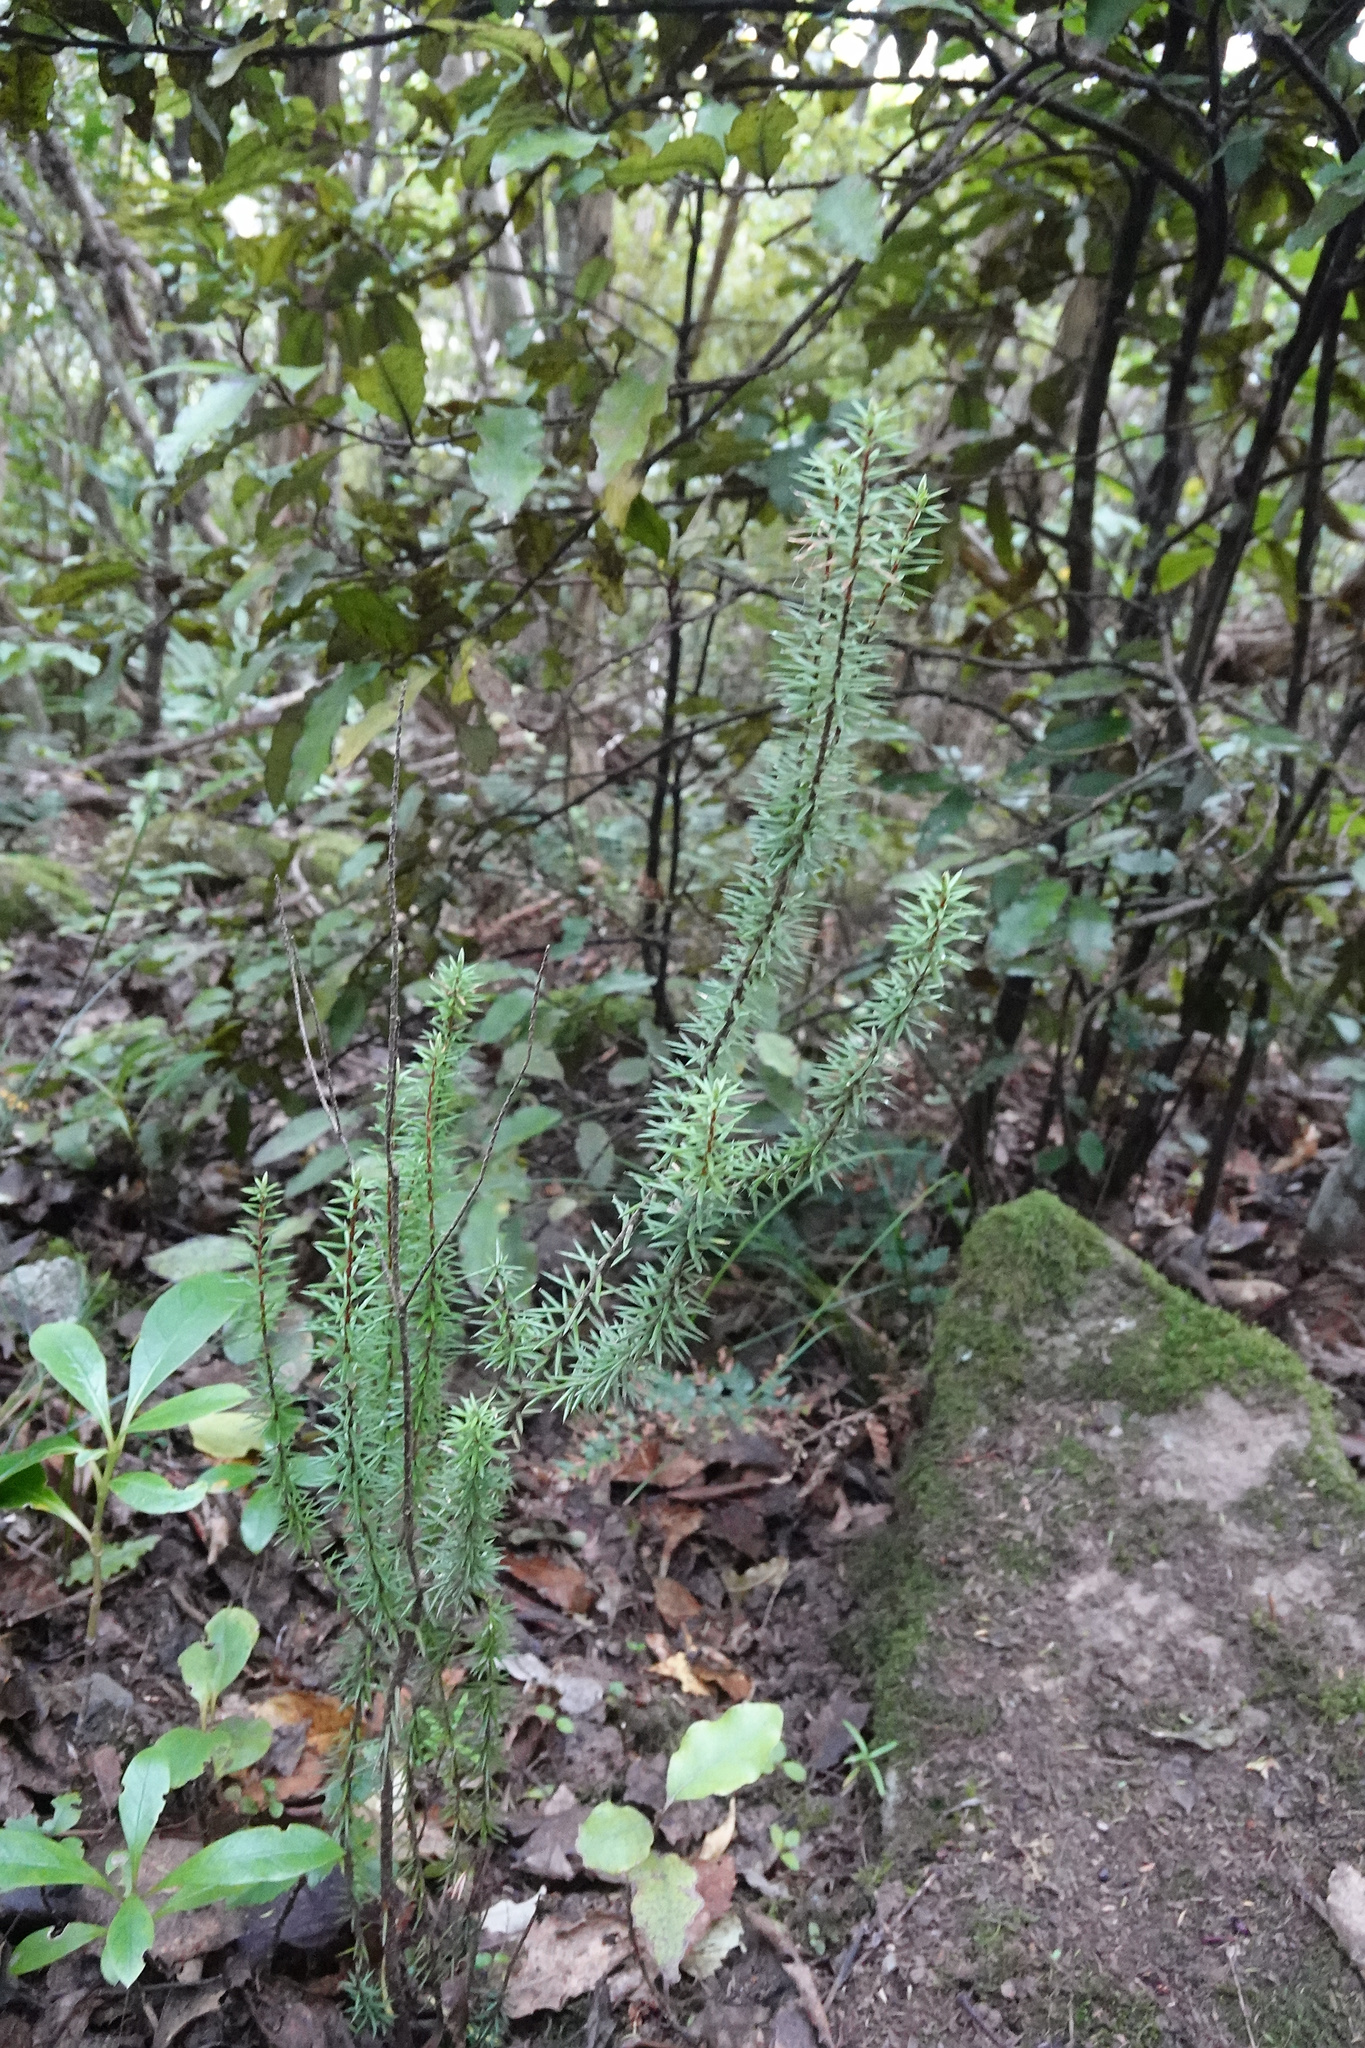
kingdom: Plantae
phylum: Tracheophyta
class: Magnoliopsida
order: Ericales
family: Ericaceae
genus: Leptecophylla
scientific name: Leptecophylla juniperina
